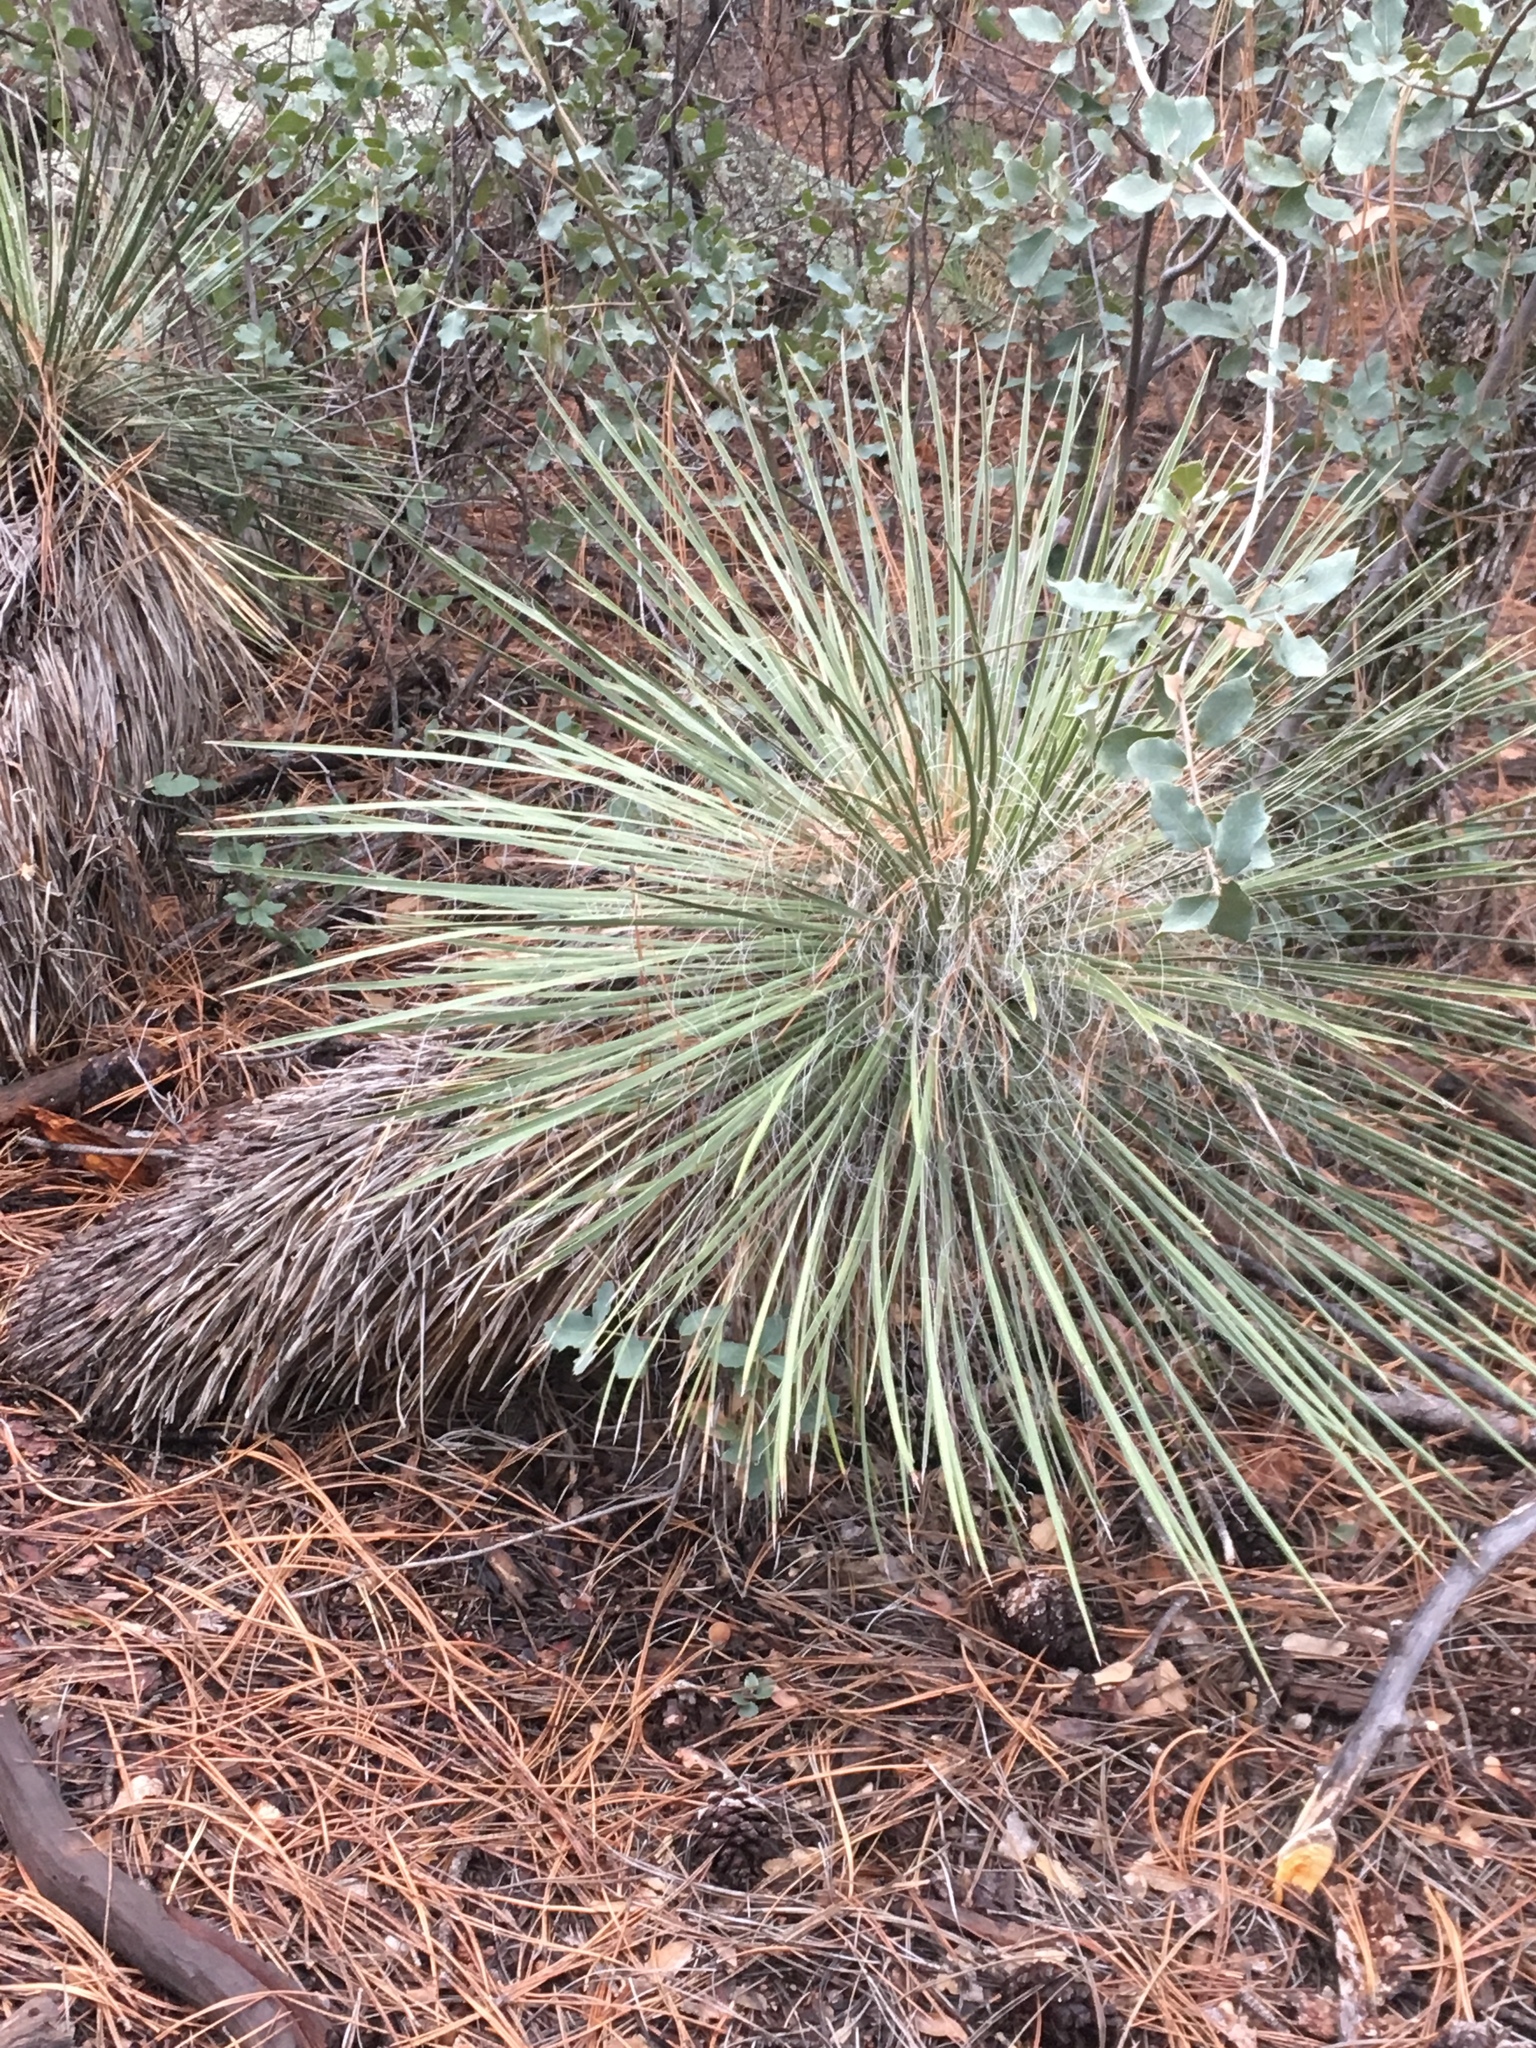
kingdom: Plantae
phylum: Tracheophyta
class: Liliopsida
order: Asparagales
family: Asparagaceae
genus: Yucca
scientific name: Yucca elata
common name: Palmella
